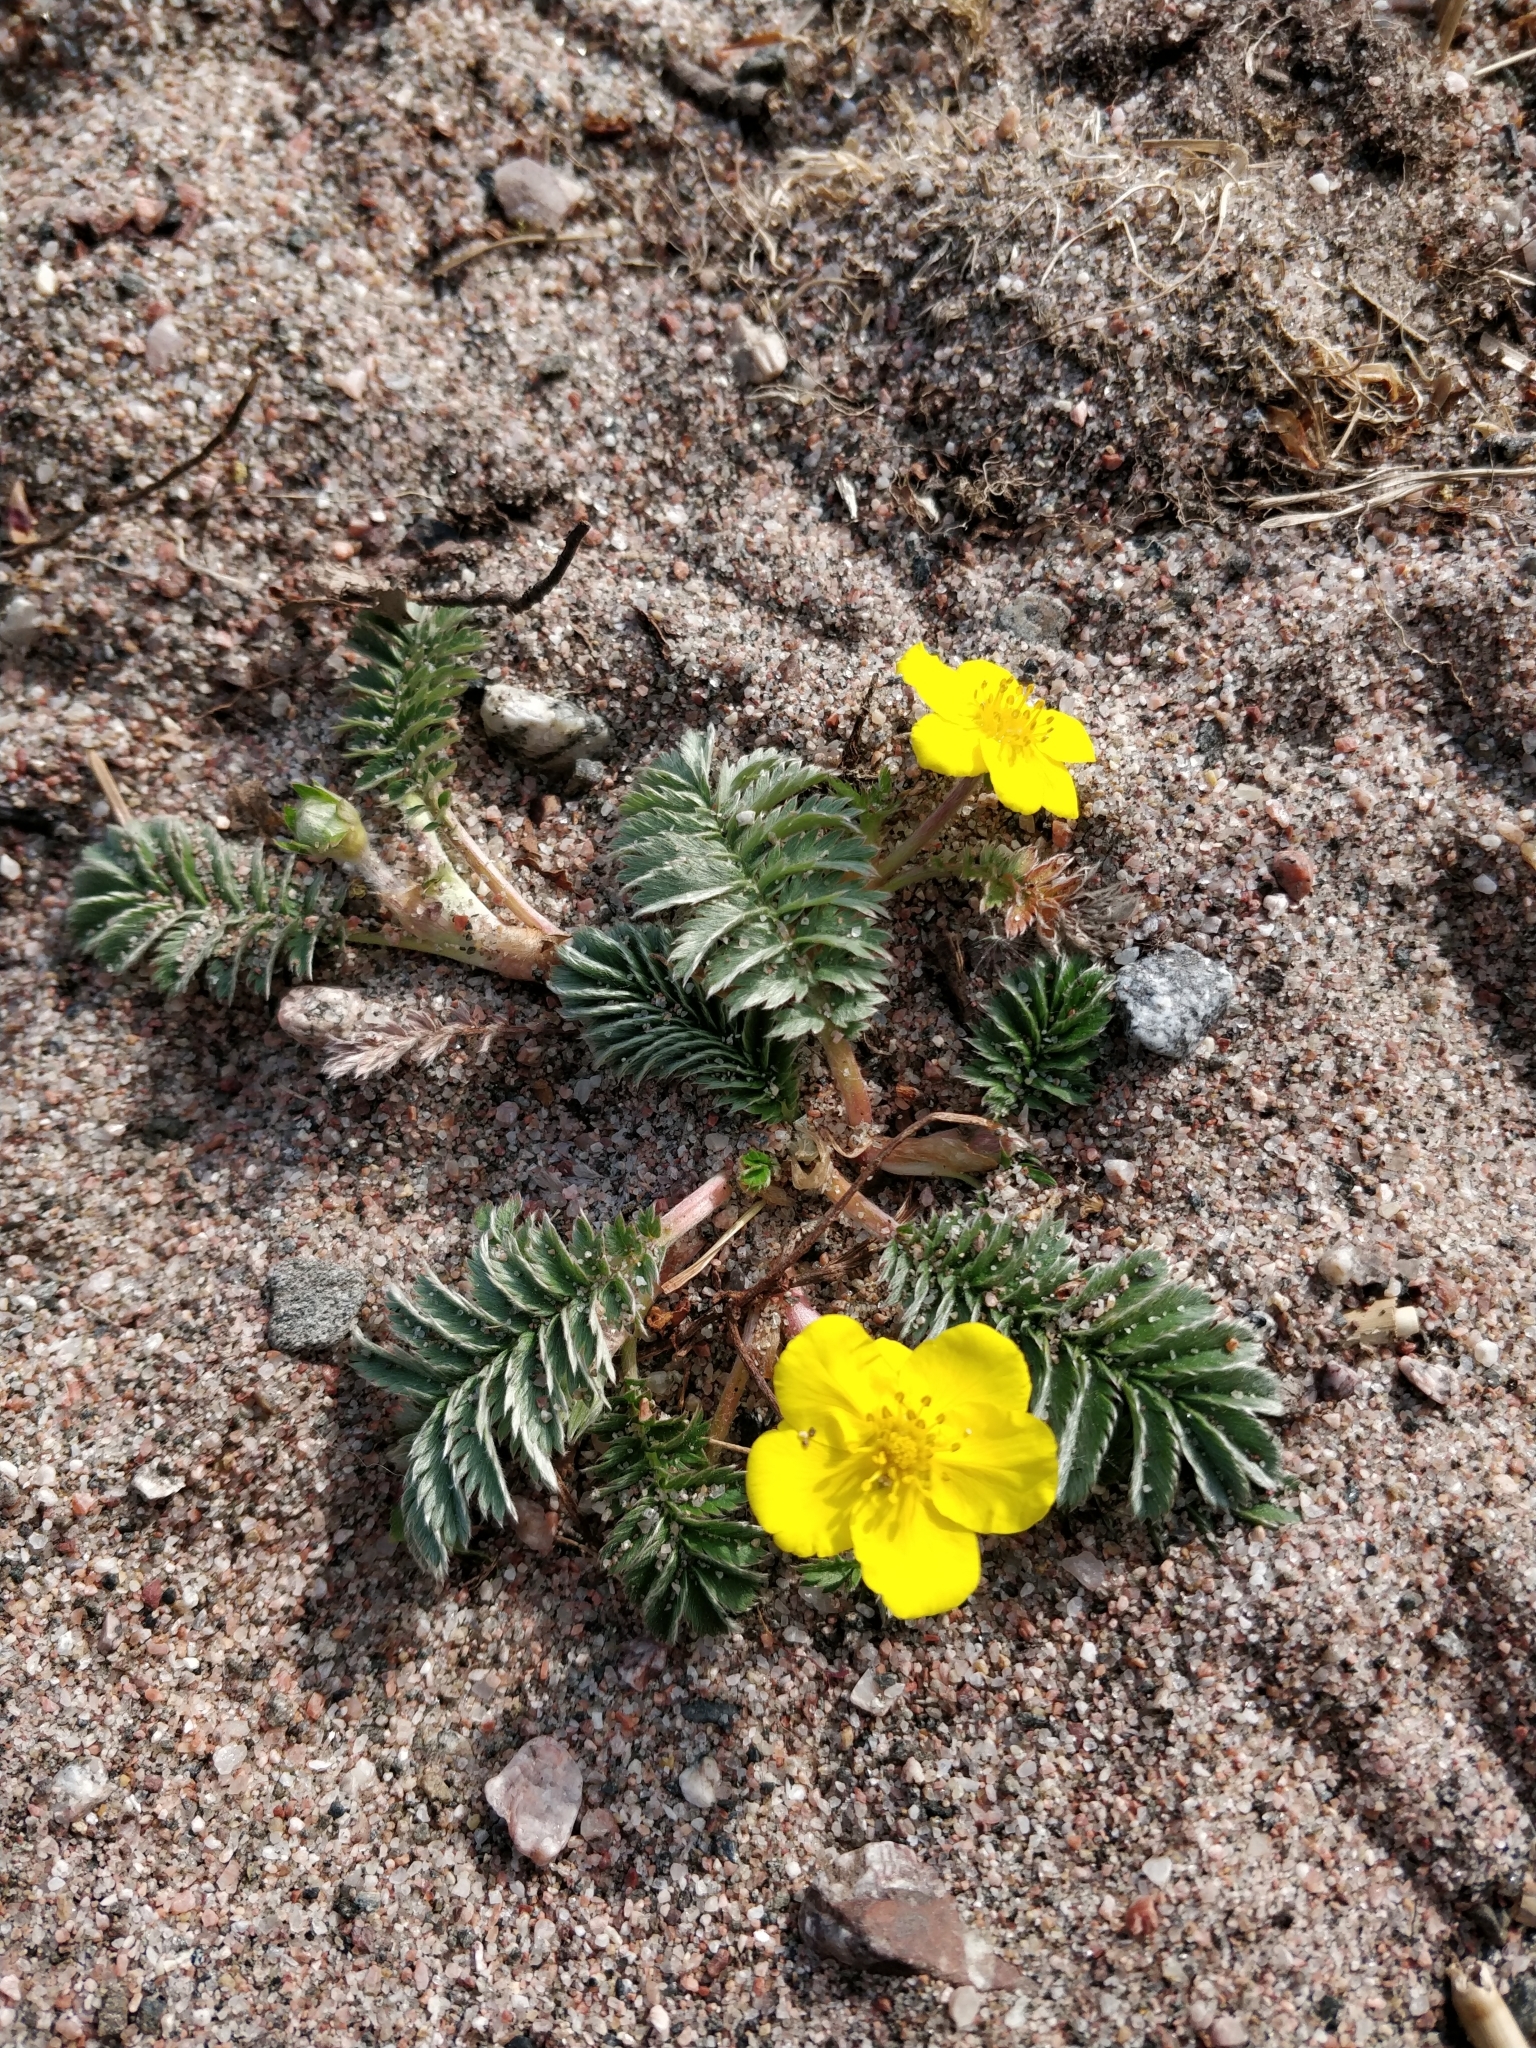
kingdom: Plantae
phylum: Tracheophyta
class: Magnoliopsida
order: Rosales
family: Rosaceae
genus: Argentina
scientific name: Argentina anserina
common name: Common silverweed
